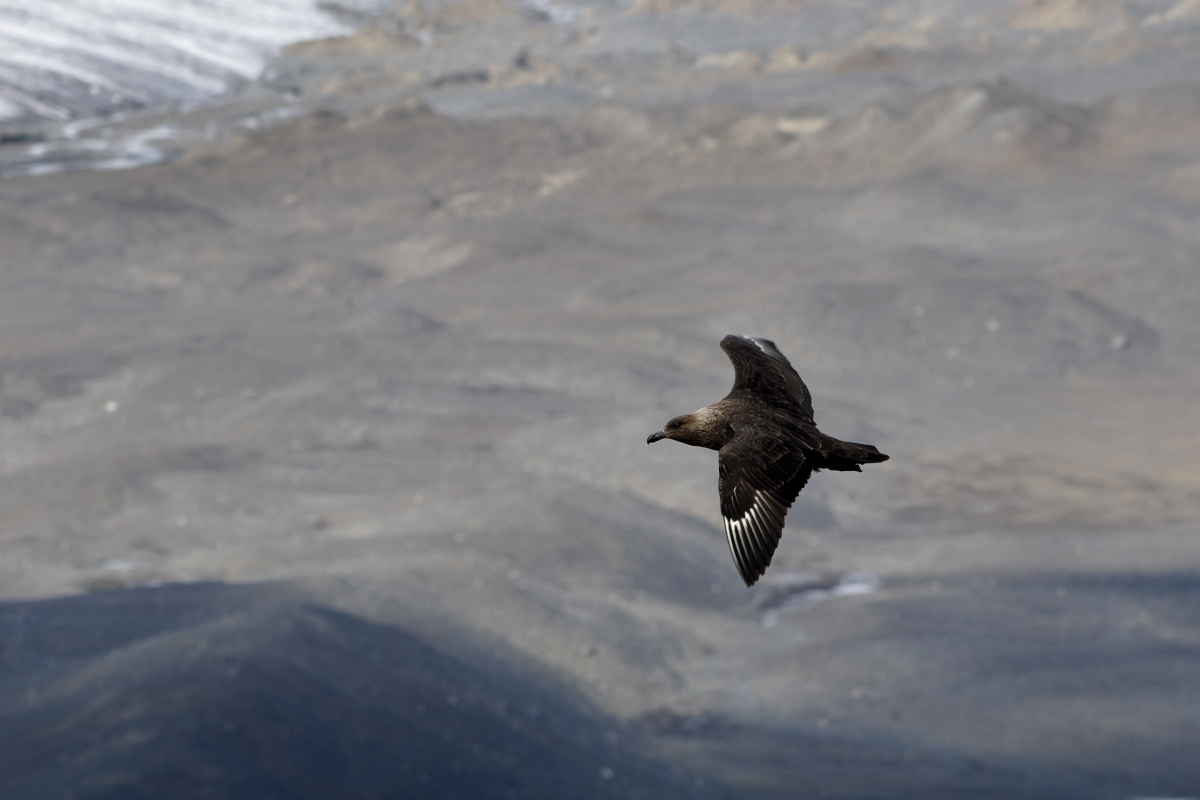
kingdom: Animalia
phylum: Chordata
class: Aves
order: Charadriiformes
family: Stercorariidae
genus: Stercorarius
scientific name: Stercorarius maccormicki
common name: South polar skua
